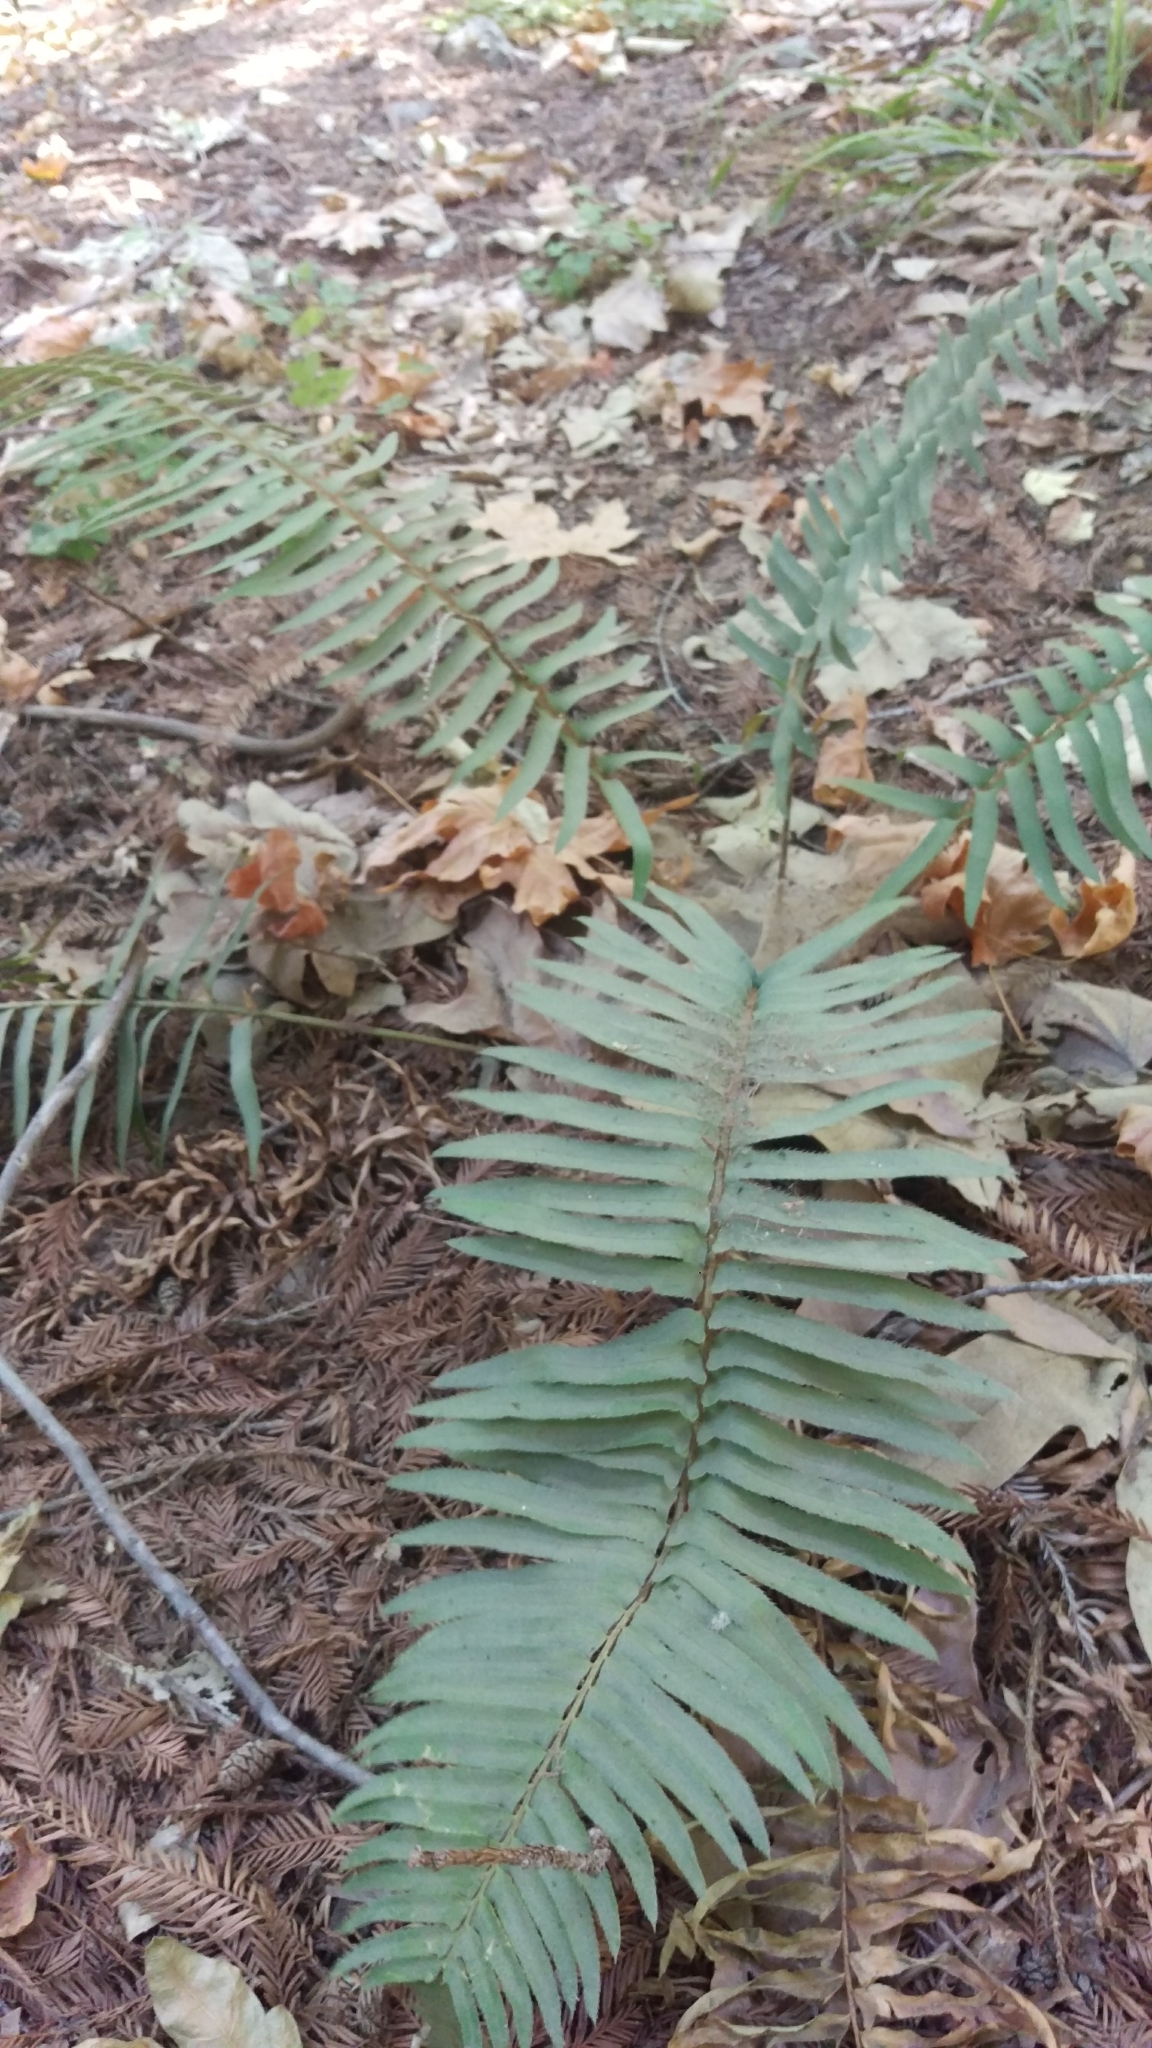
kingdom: Plantae
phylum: Tracheophyta
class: Polypodiopsida
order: Polypodiales
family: Dryopteridaceae
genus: Polystichum
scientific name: Polystichum munitum
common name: Western sword-fern
